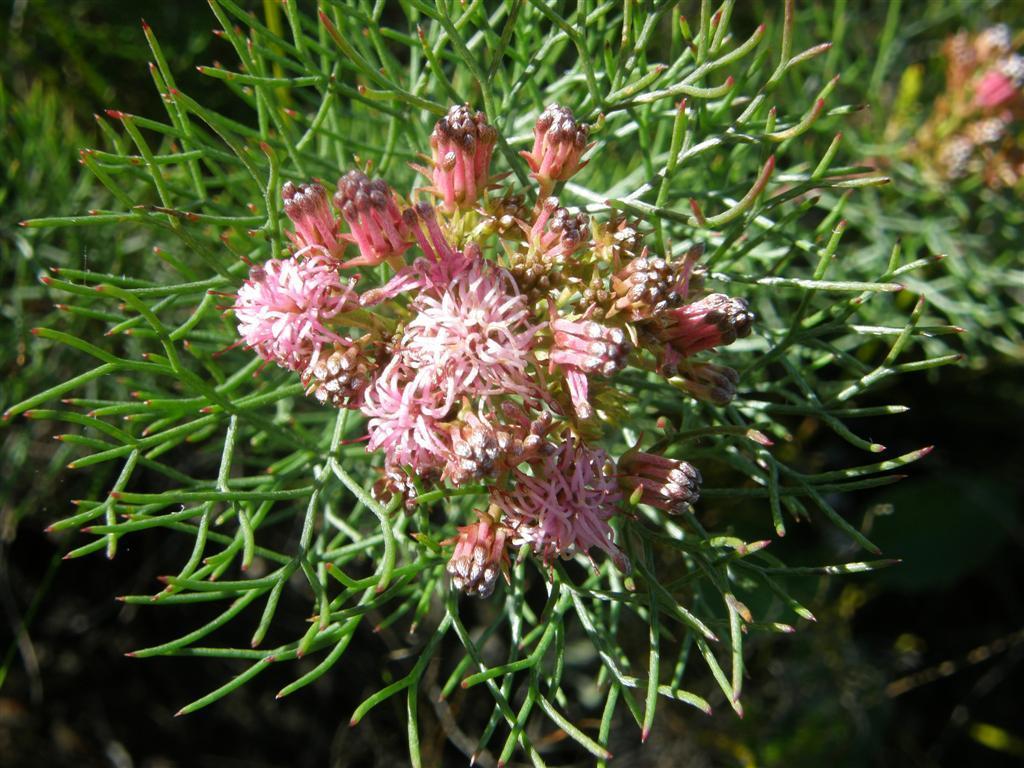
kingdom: Plantae
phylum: Tracheophyta
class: Magnoliopsida
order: Proteales
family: Proteaceae
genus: Serruria
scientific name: Serruria fasciflora
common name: Common pin spiderhead
